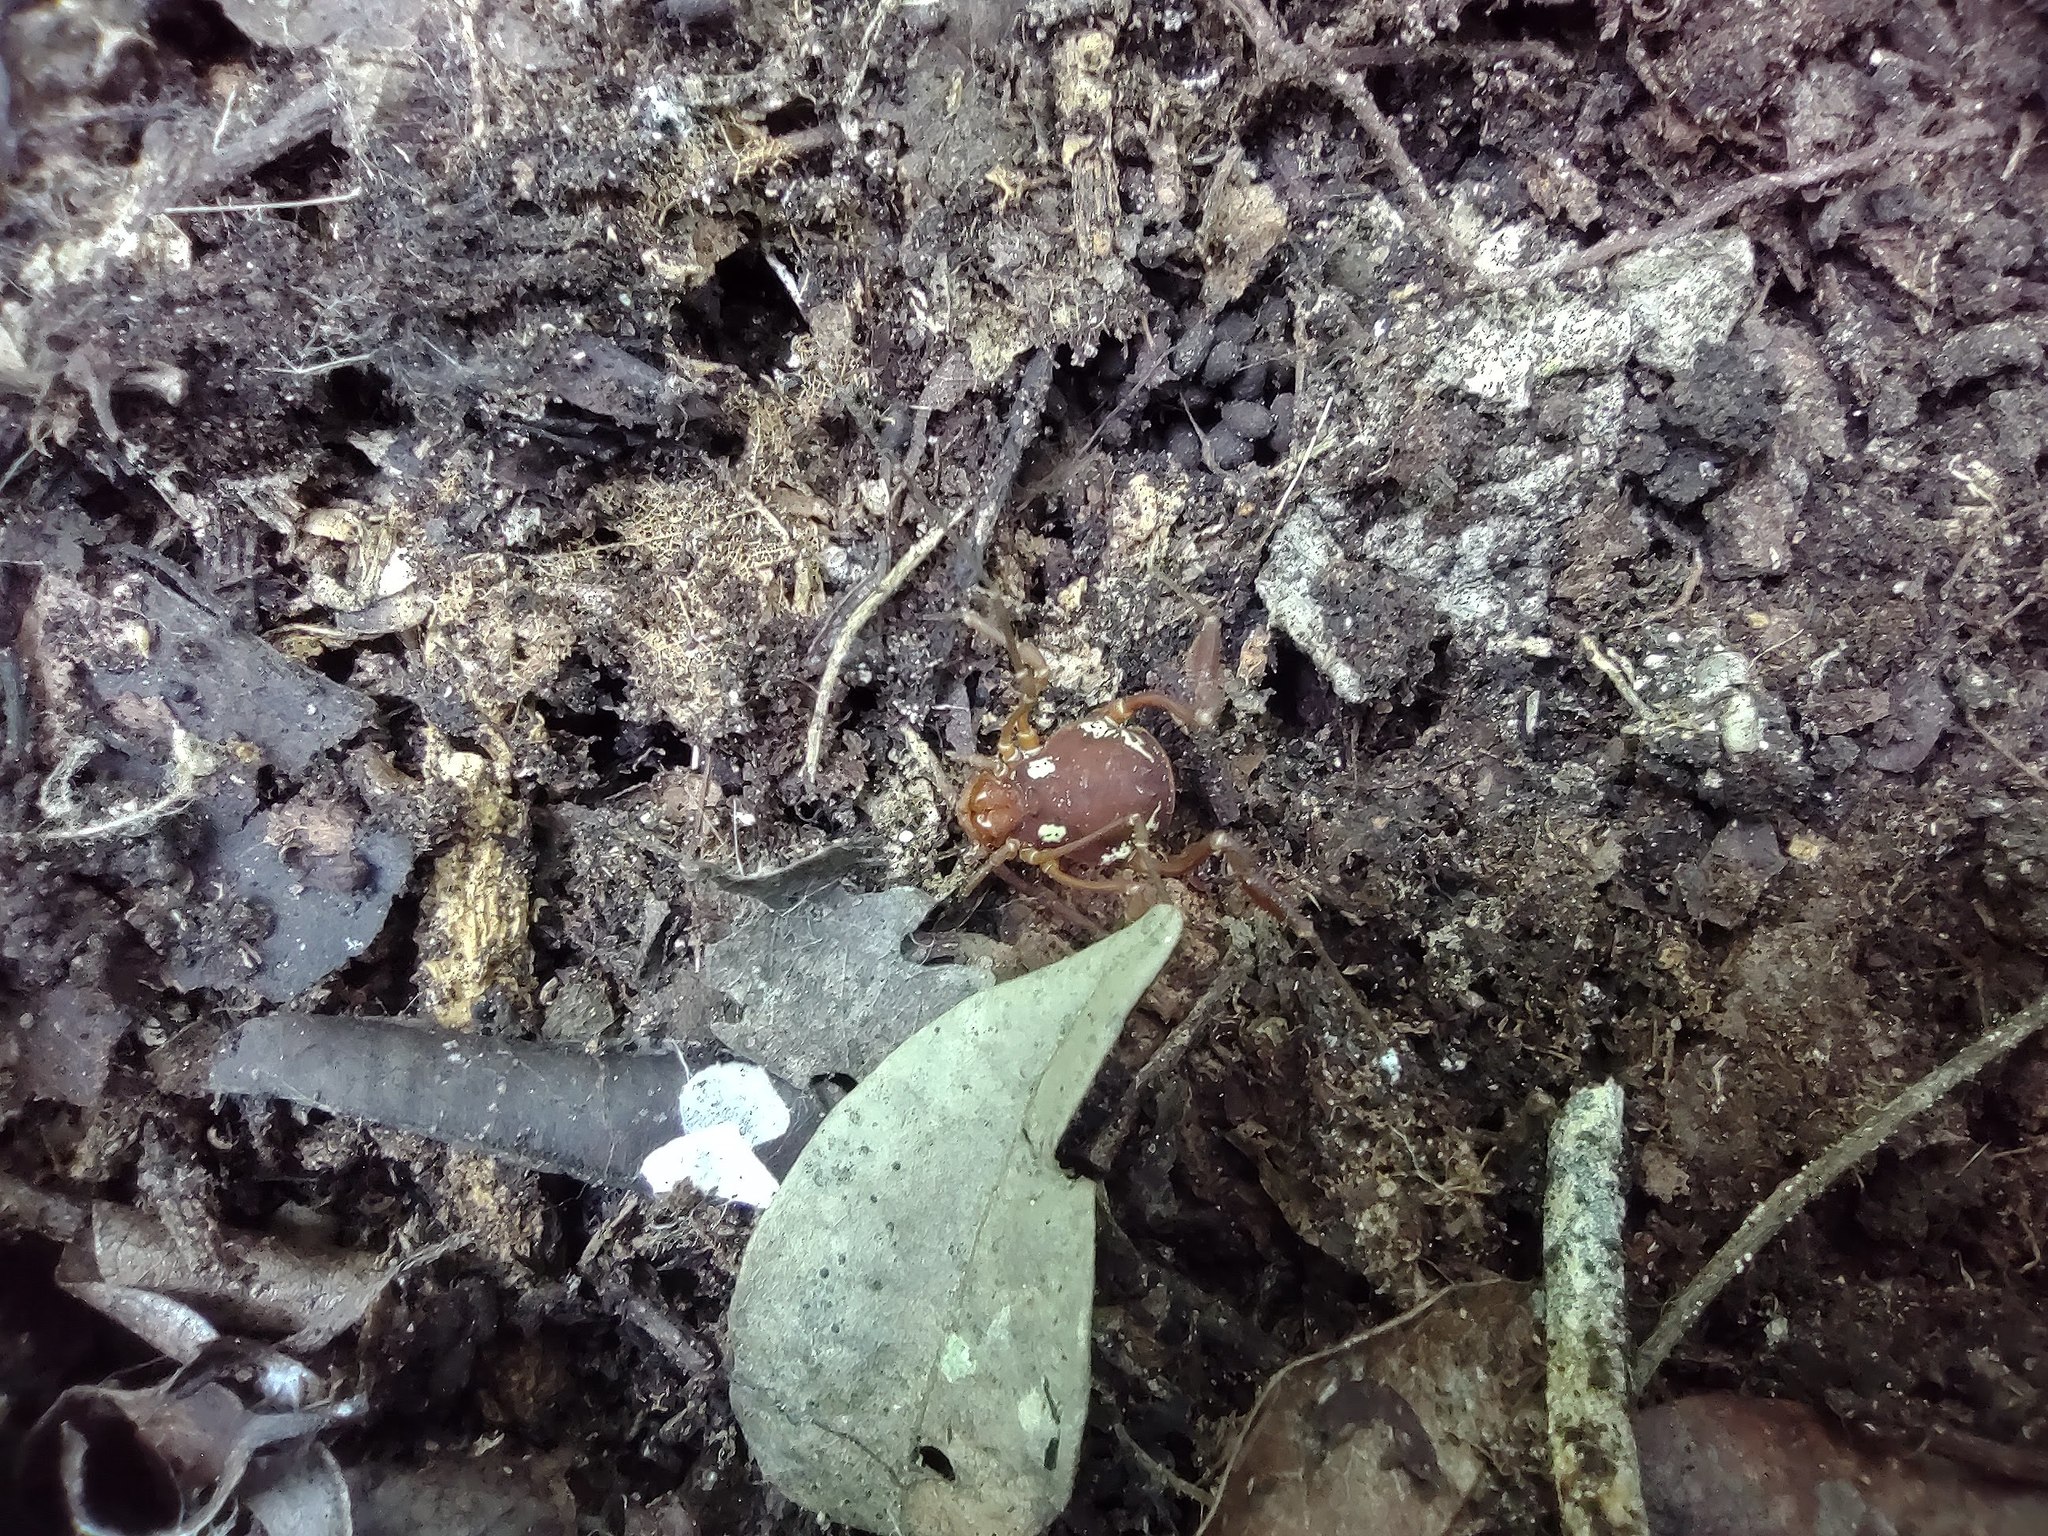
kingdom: Animalia
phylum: Arthropoda
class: Arachnida
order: Opiliones
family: Cosmetidae
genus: Erginulus
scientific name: Erginulus roeweri
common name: Harvestmen
